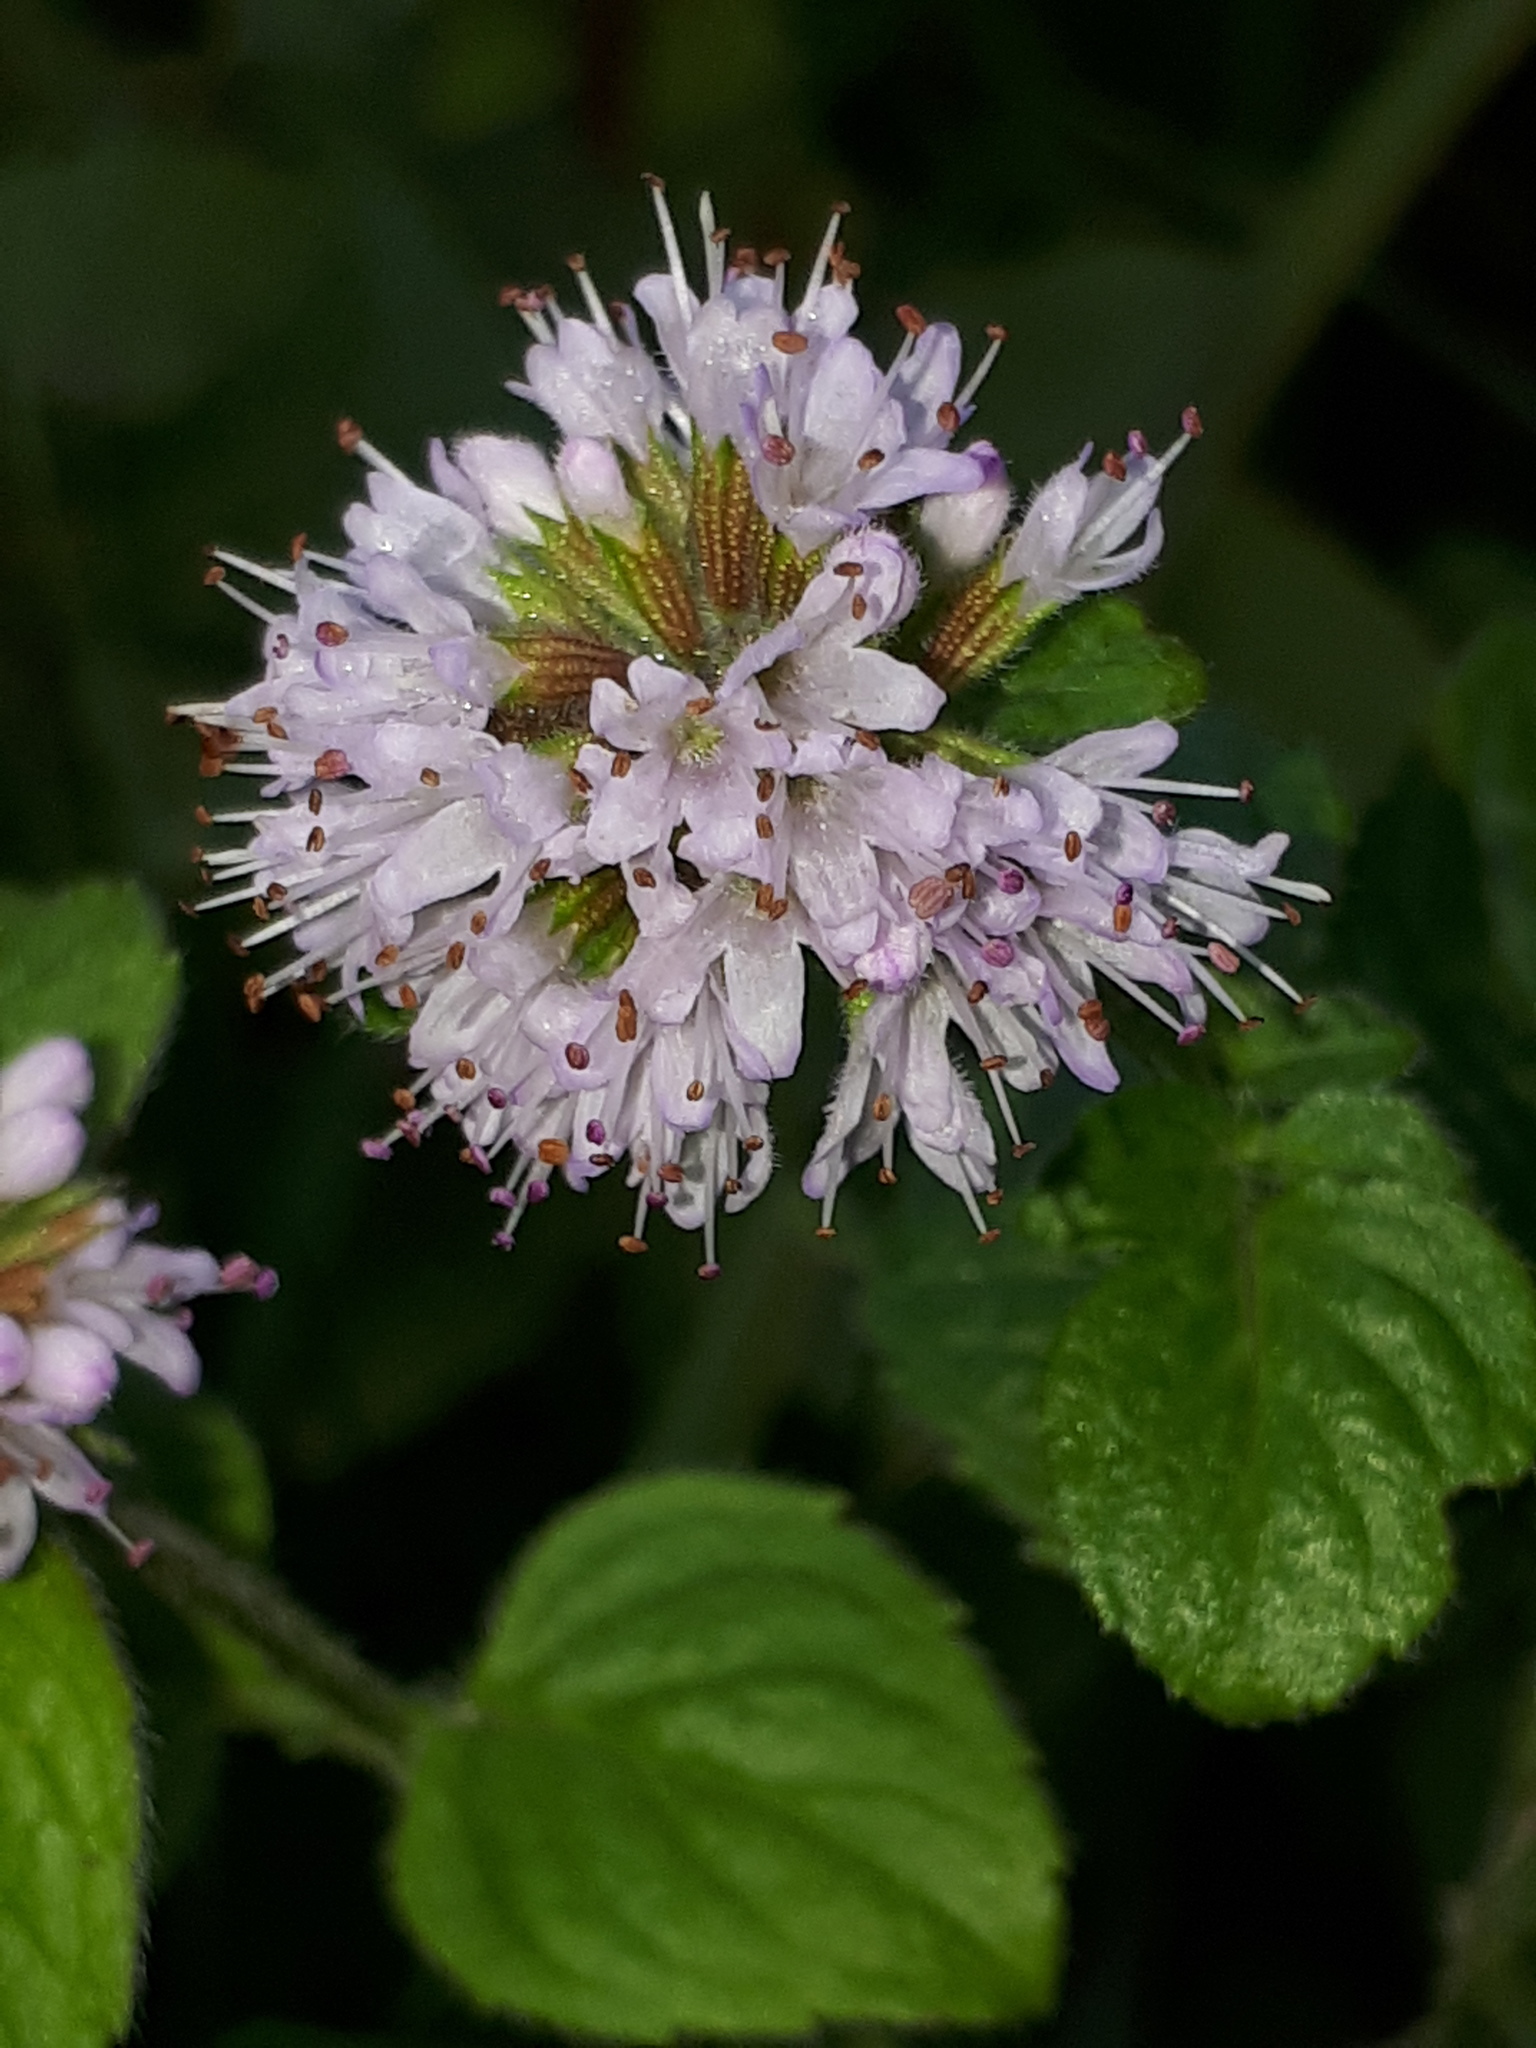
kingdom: Plantae
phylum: Tracheophyta
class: Magnoliopsida
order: Lamiales
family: Lamiaceae
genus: Mentha
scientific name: Mentha aquatica
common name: Water mint
